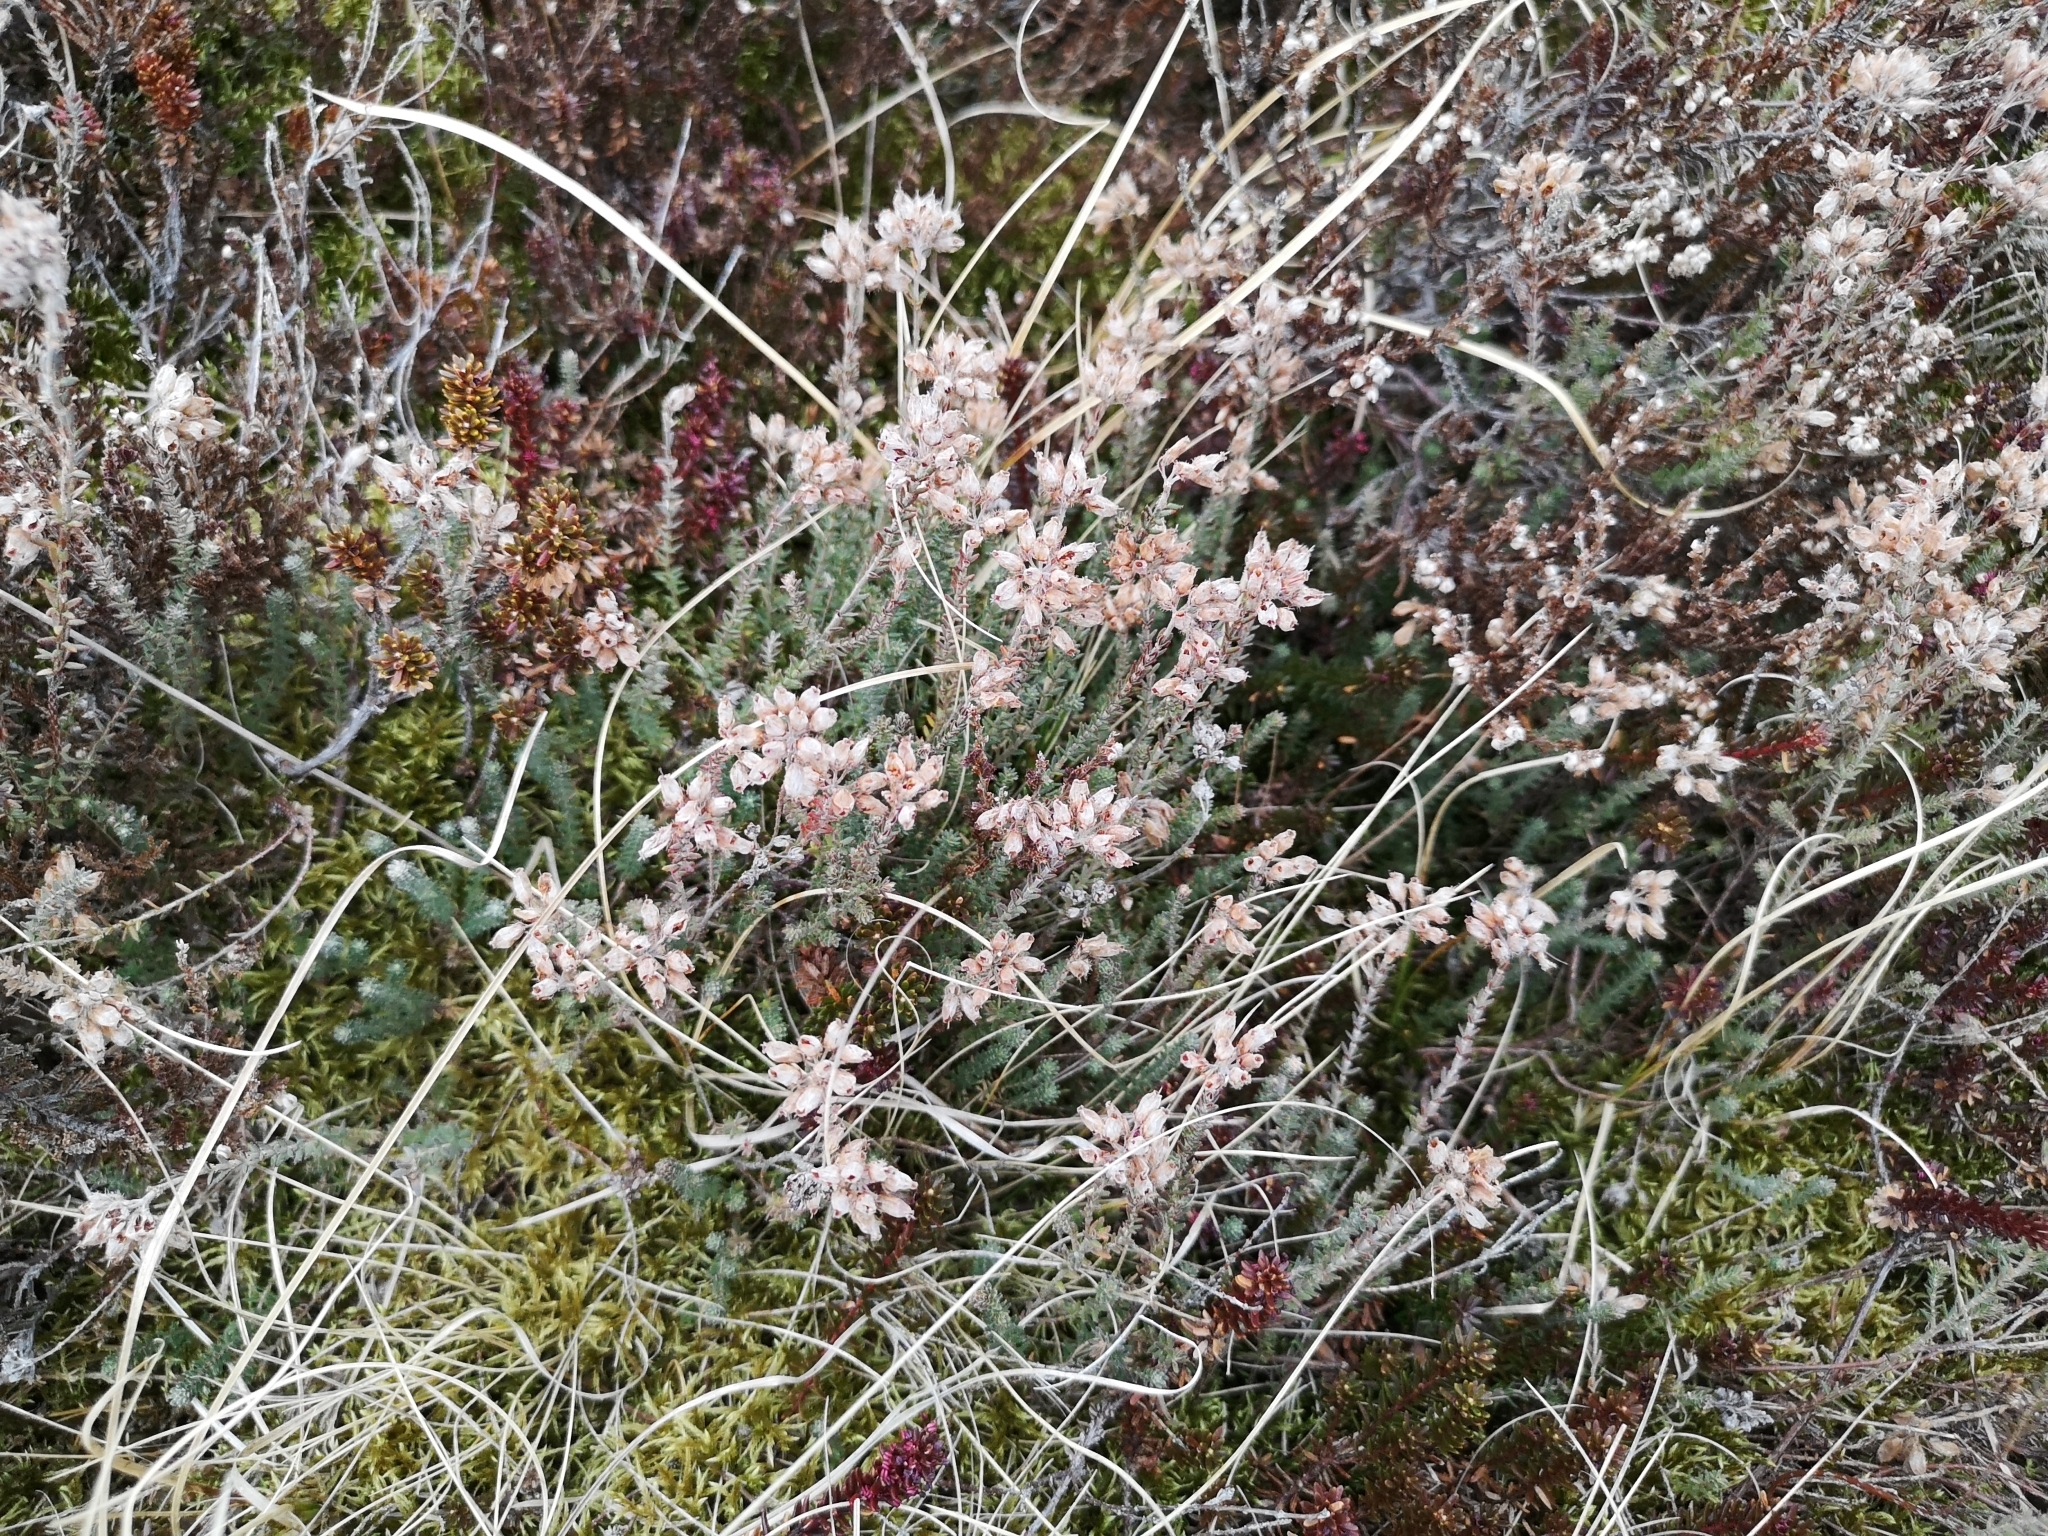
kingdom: Plantae
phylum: Tracheophyta
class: Magnoliopsida
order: Ericales
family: Ericaceae
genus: Erica
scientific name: Erica tetralix
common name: Cross-leaved heath
